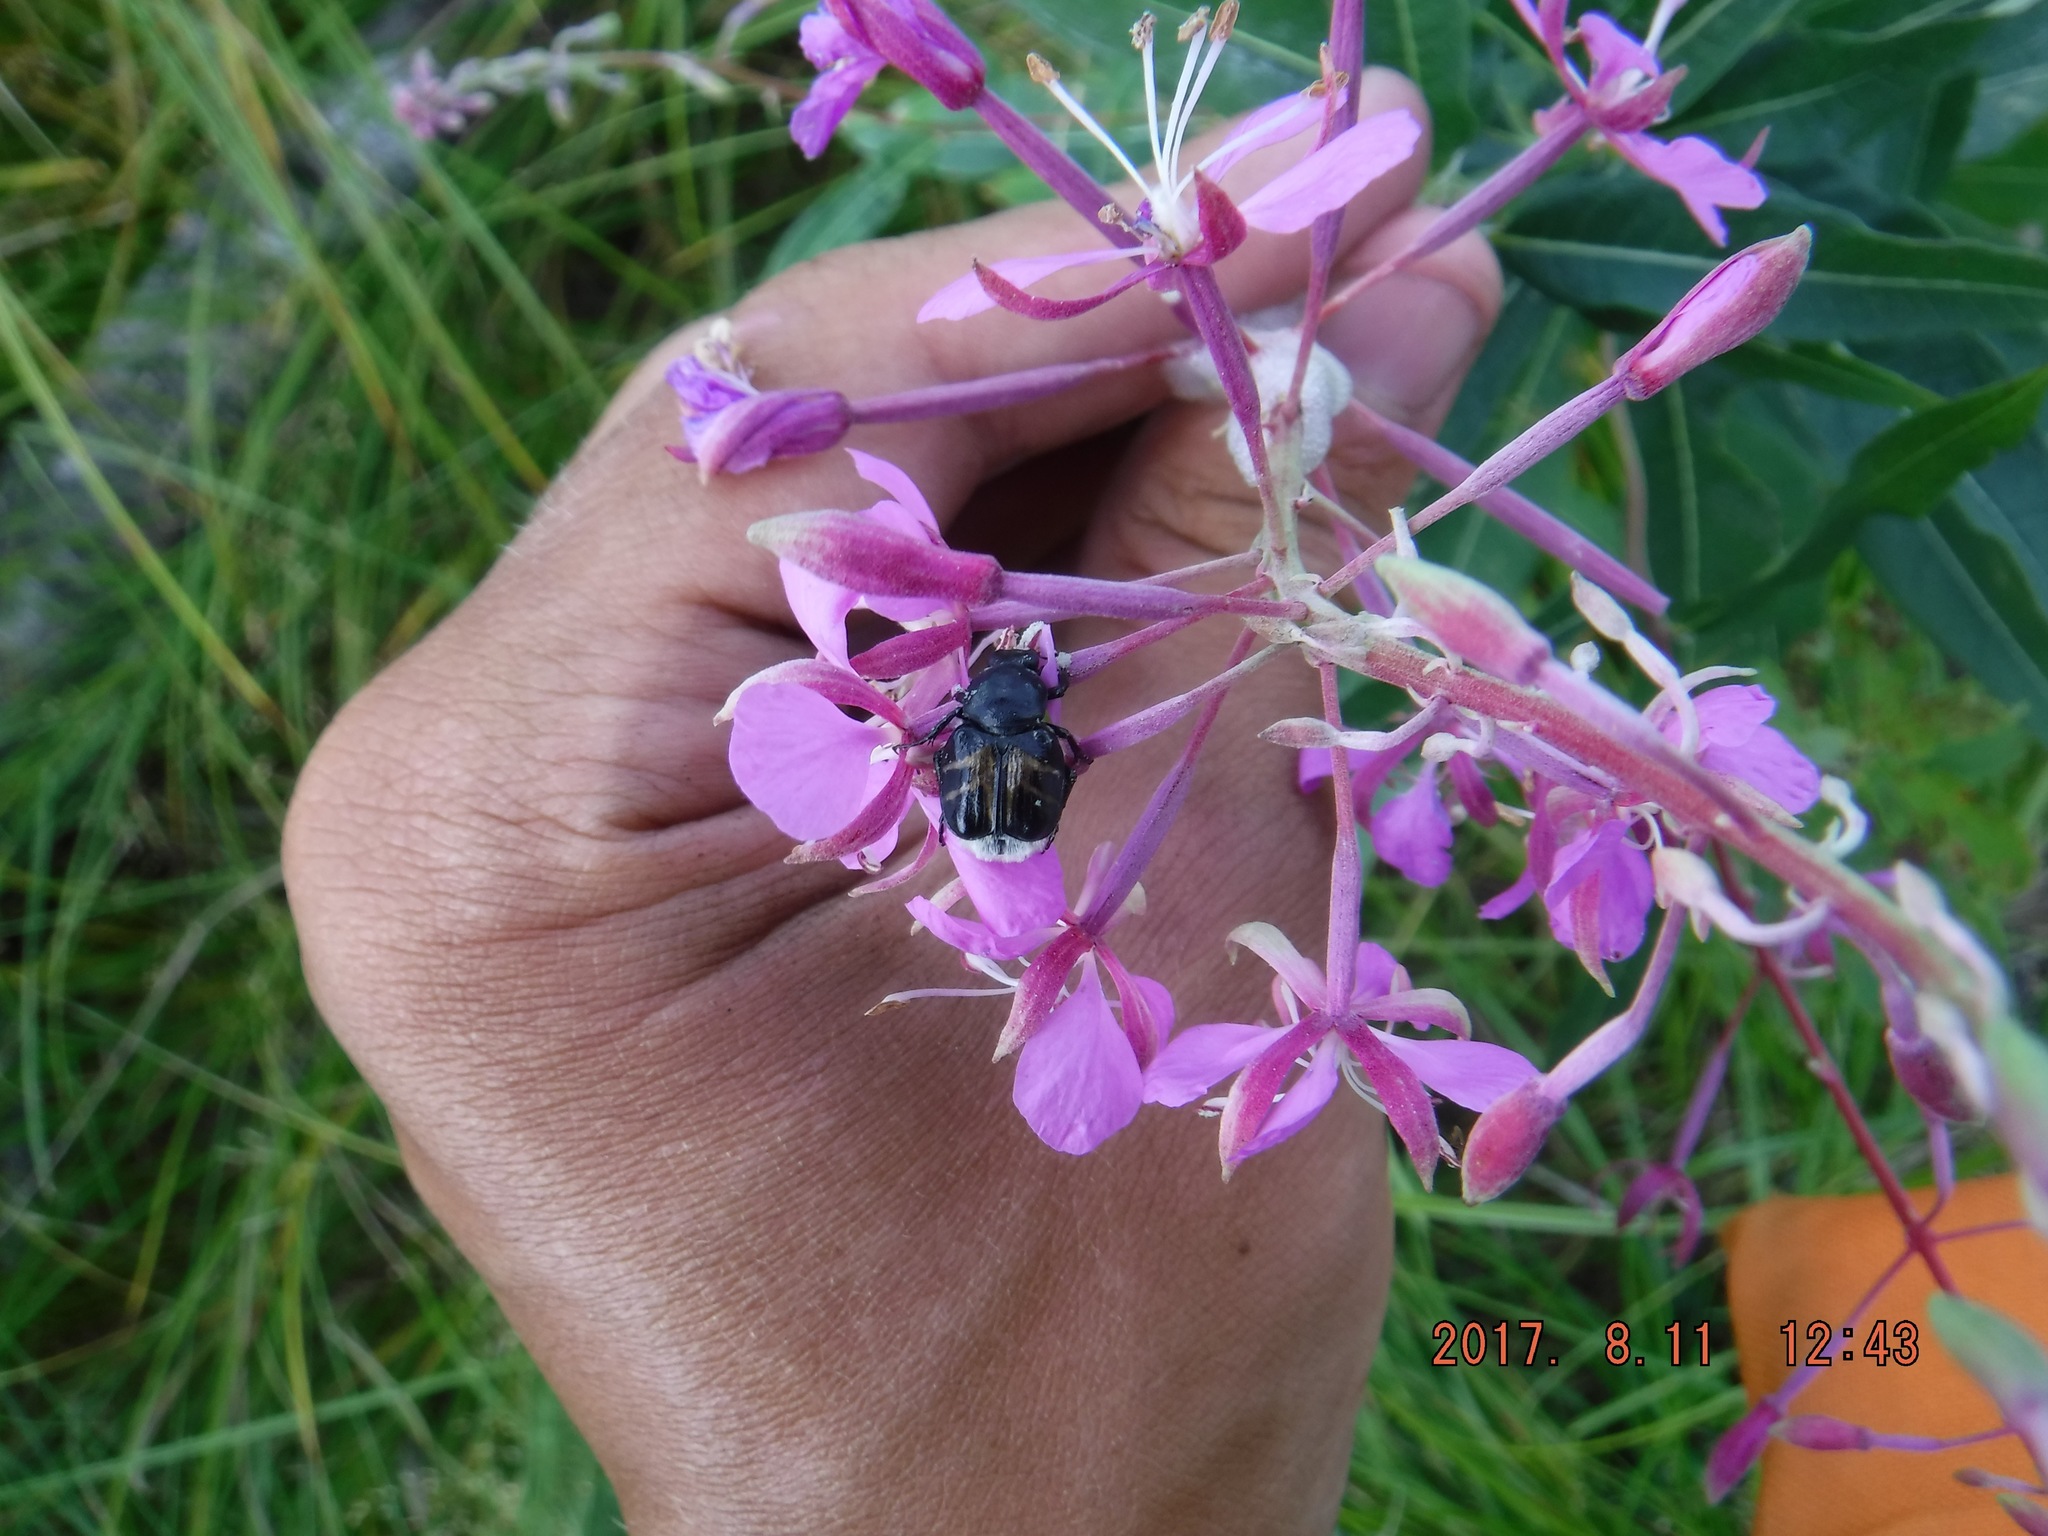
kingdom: Animalia
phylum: Arthropoda
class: Insecta
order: Coleoptera
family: Scarabaeidae
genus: Trichiotinus
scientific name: Trichiotinus assimilis
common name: Bee-mimic beetle
